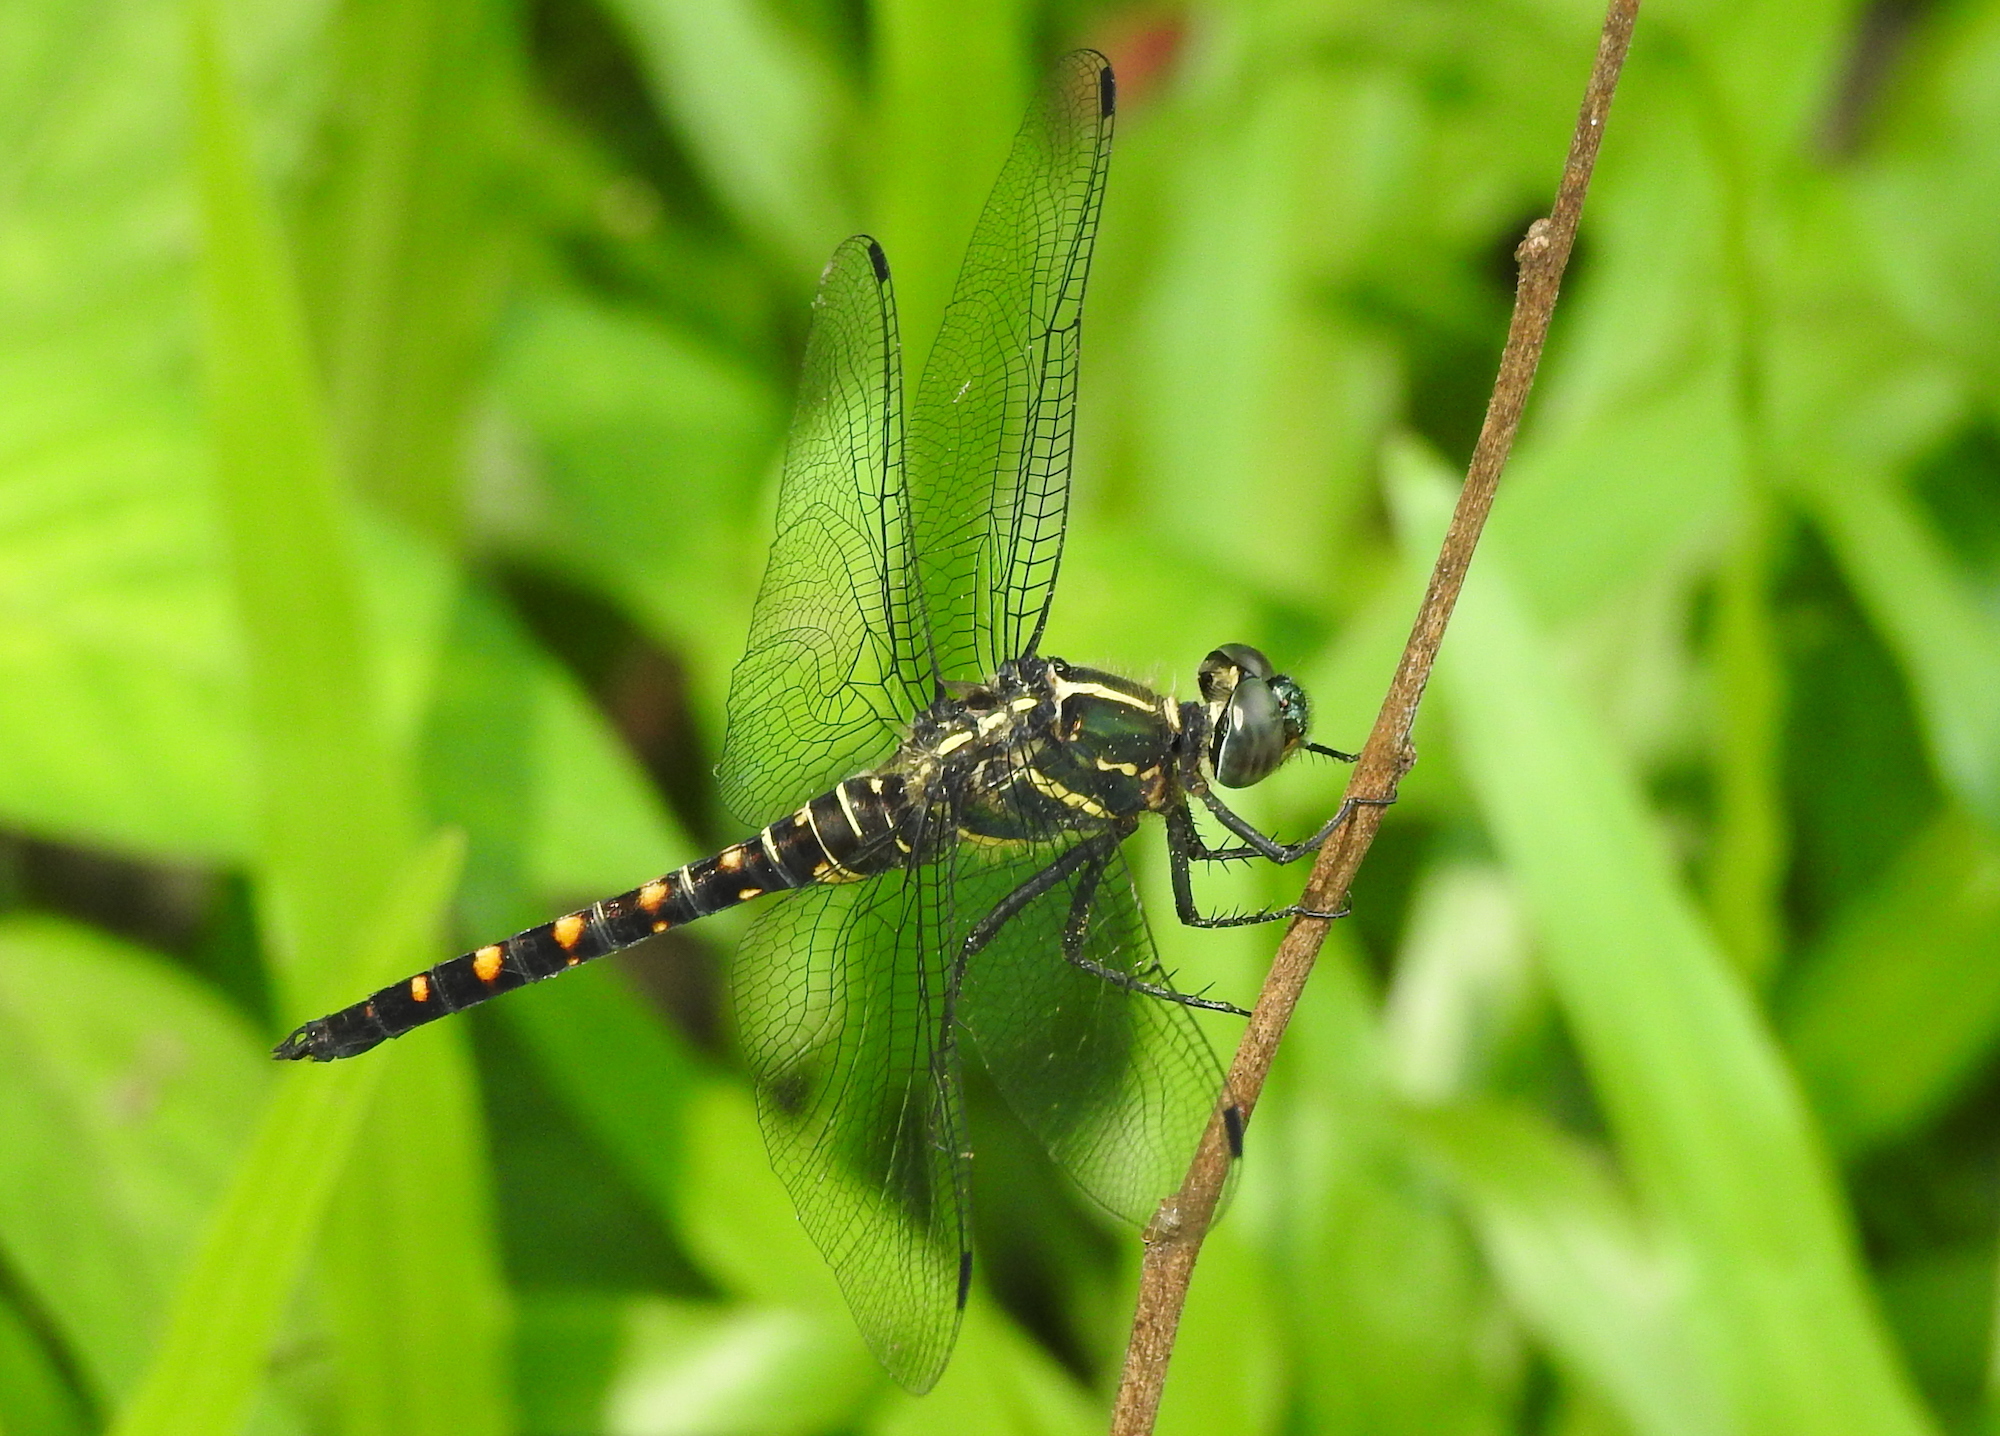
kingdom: Animalia
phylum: Arthropoda
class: Insecta
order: Odonata
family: Libellulidae
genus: Onychothemis
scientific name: Onychothemis testacea
